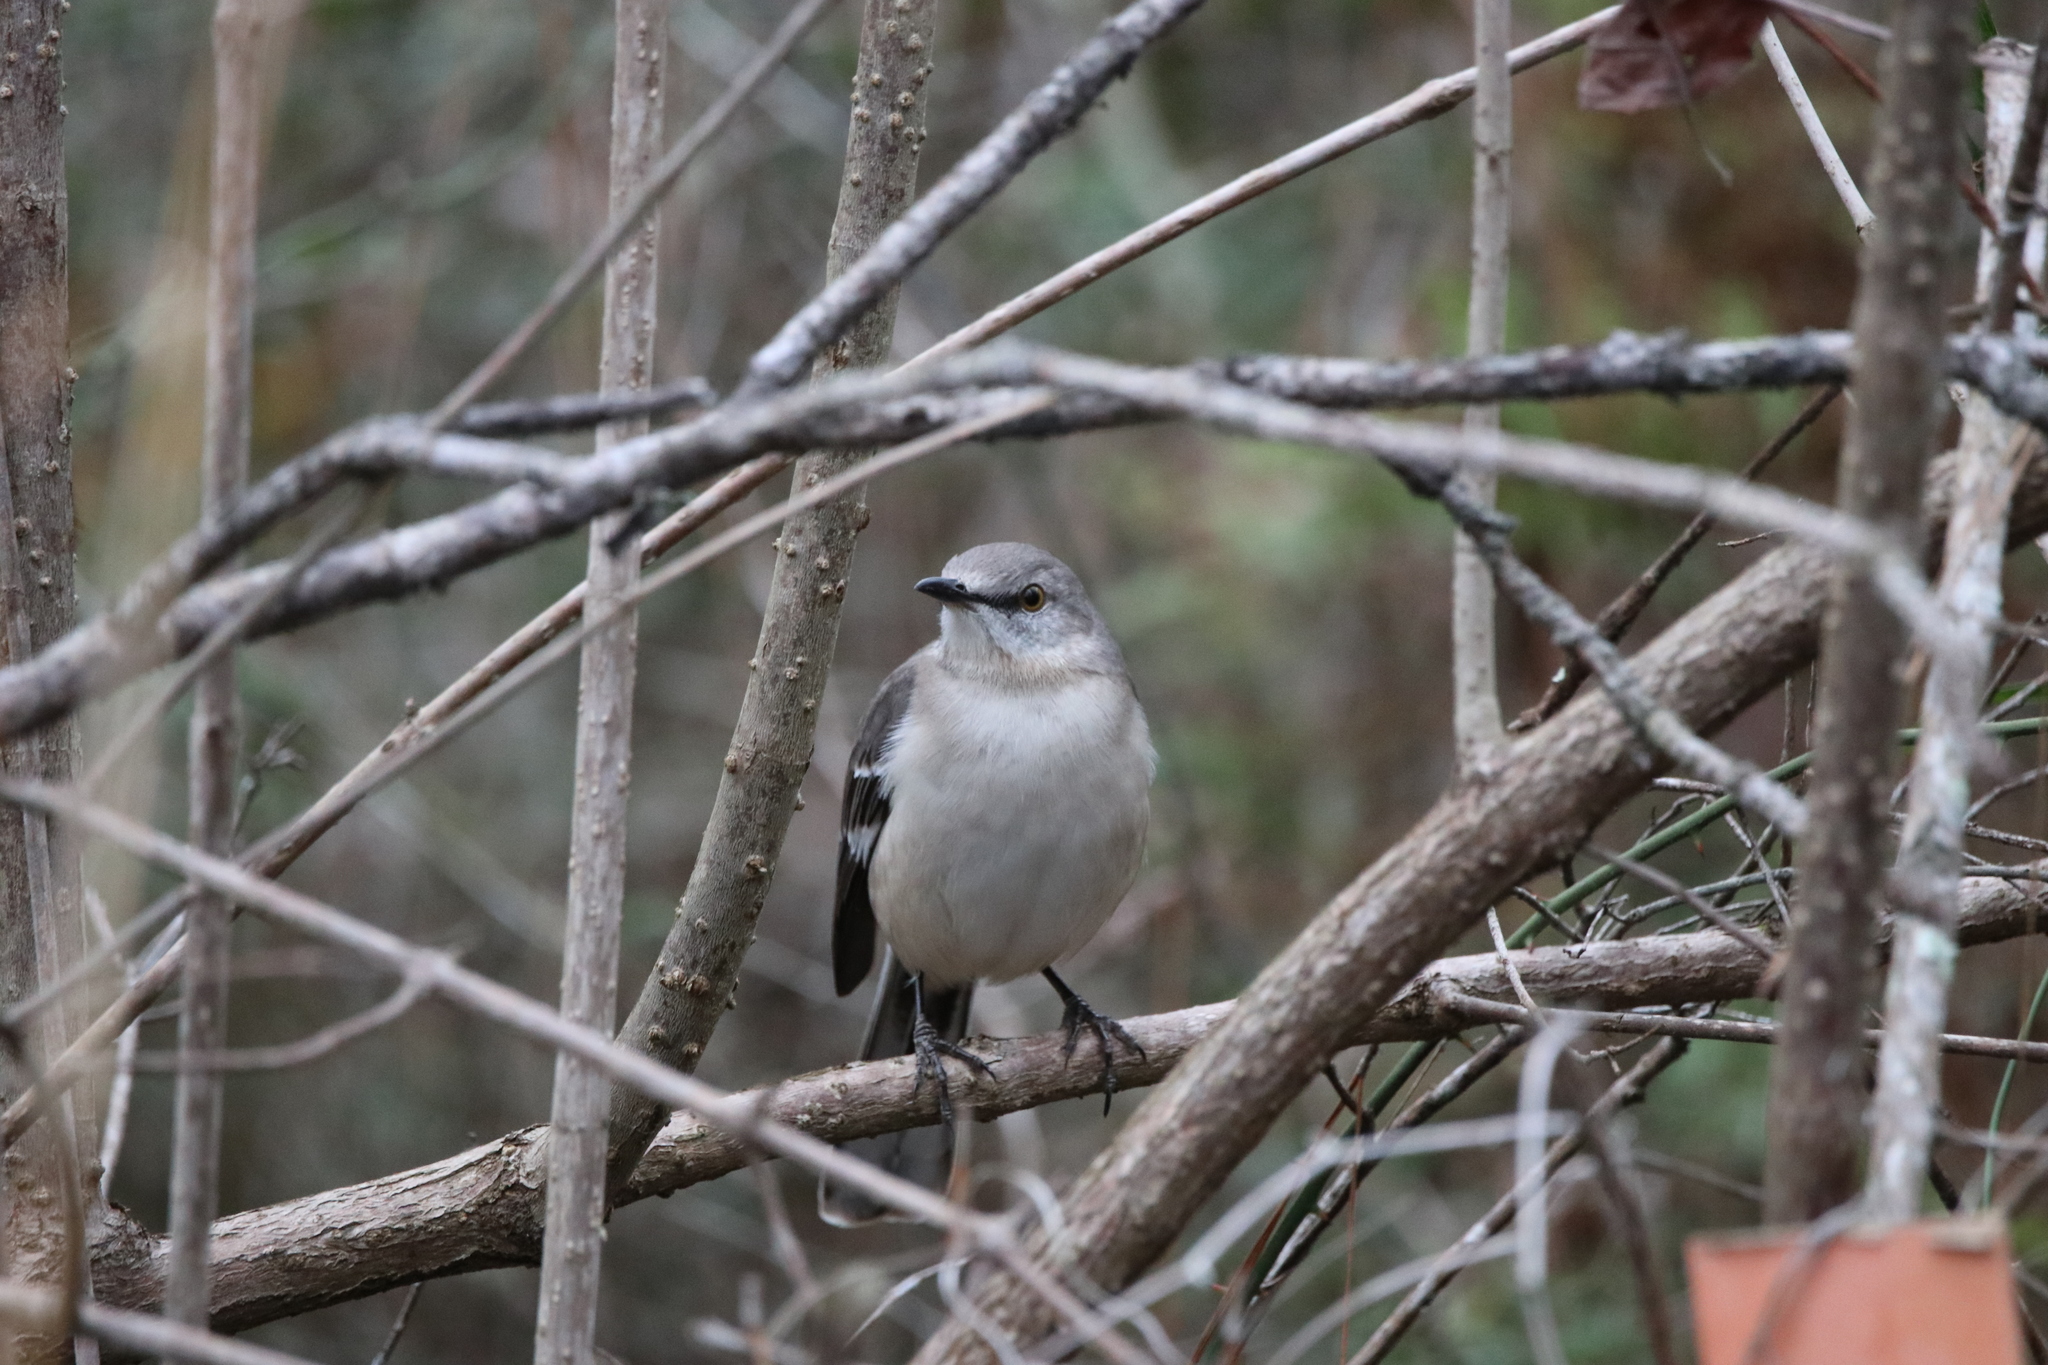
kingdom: Animalia
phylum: Chordata
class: Aves
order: Passeriformes
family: Mimidae
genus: Mimus
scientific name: Mimus polyglottos
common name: Northern mockingbird
